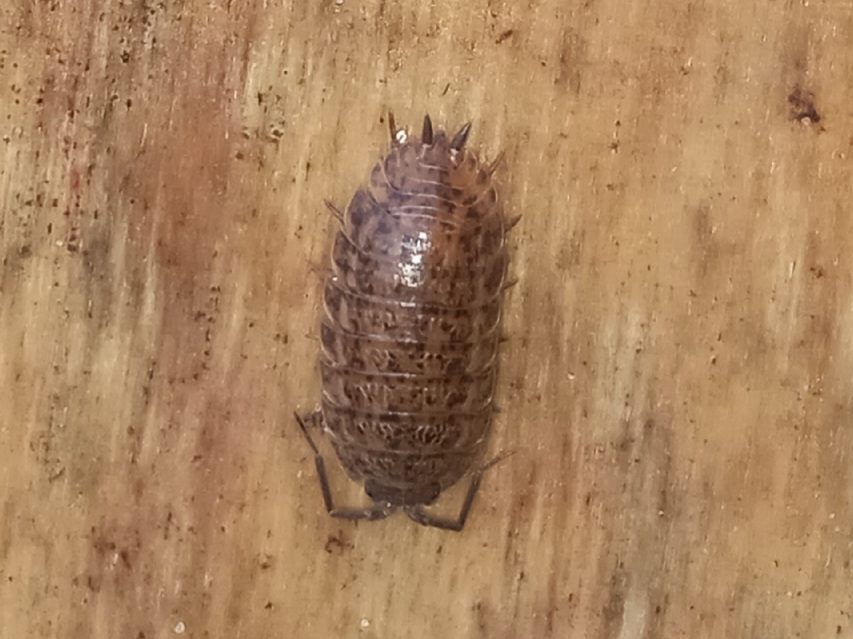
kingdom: Animalia
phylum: Arthropoda
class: Malacostraca
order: Isopoda
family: Trachelipodidae
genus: Trachelipus
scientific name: Trachelipus rathkii
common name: Isopod
